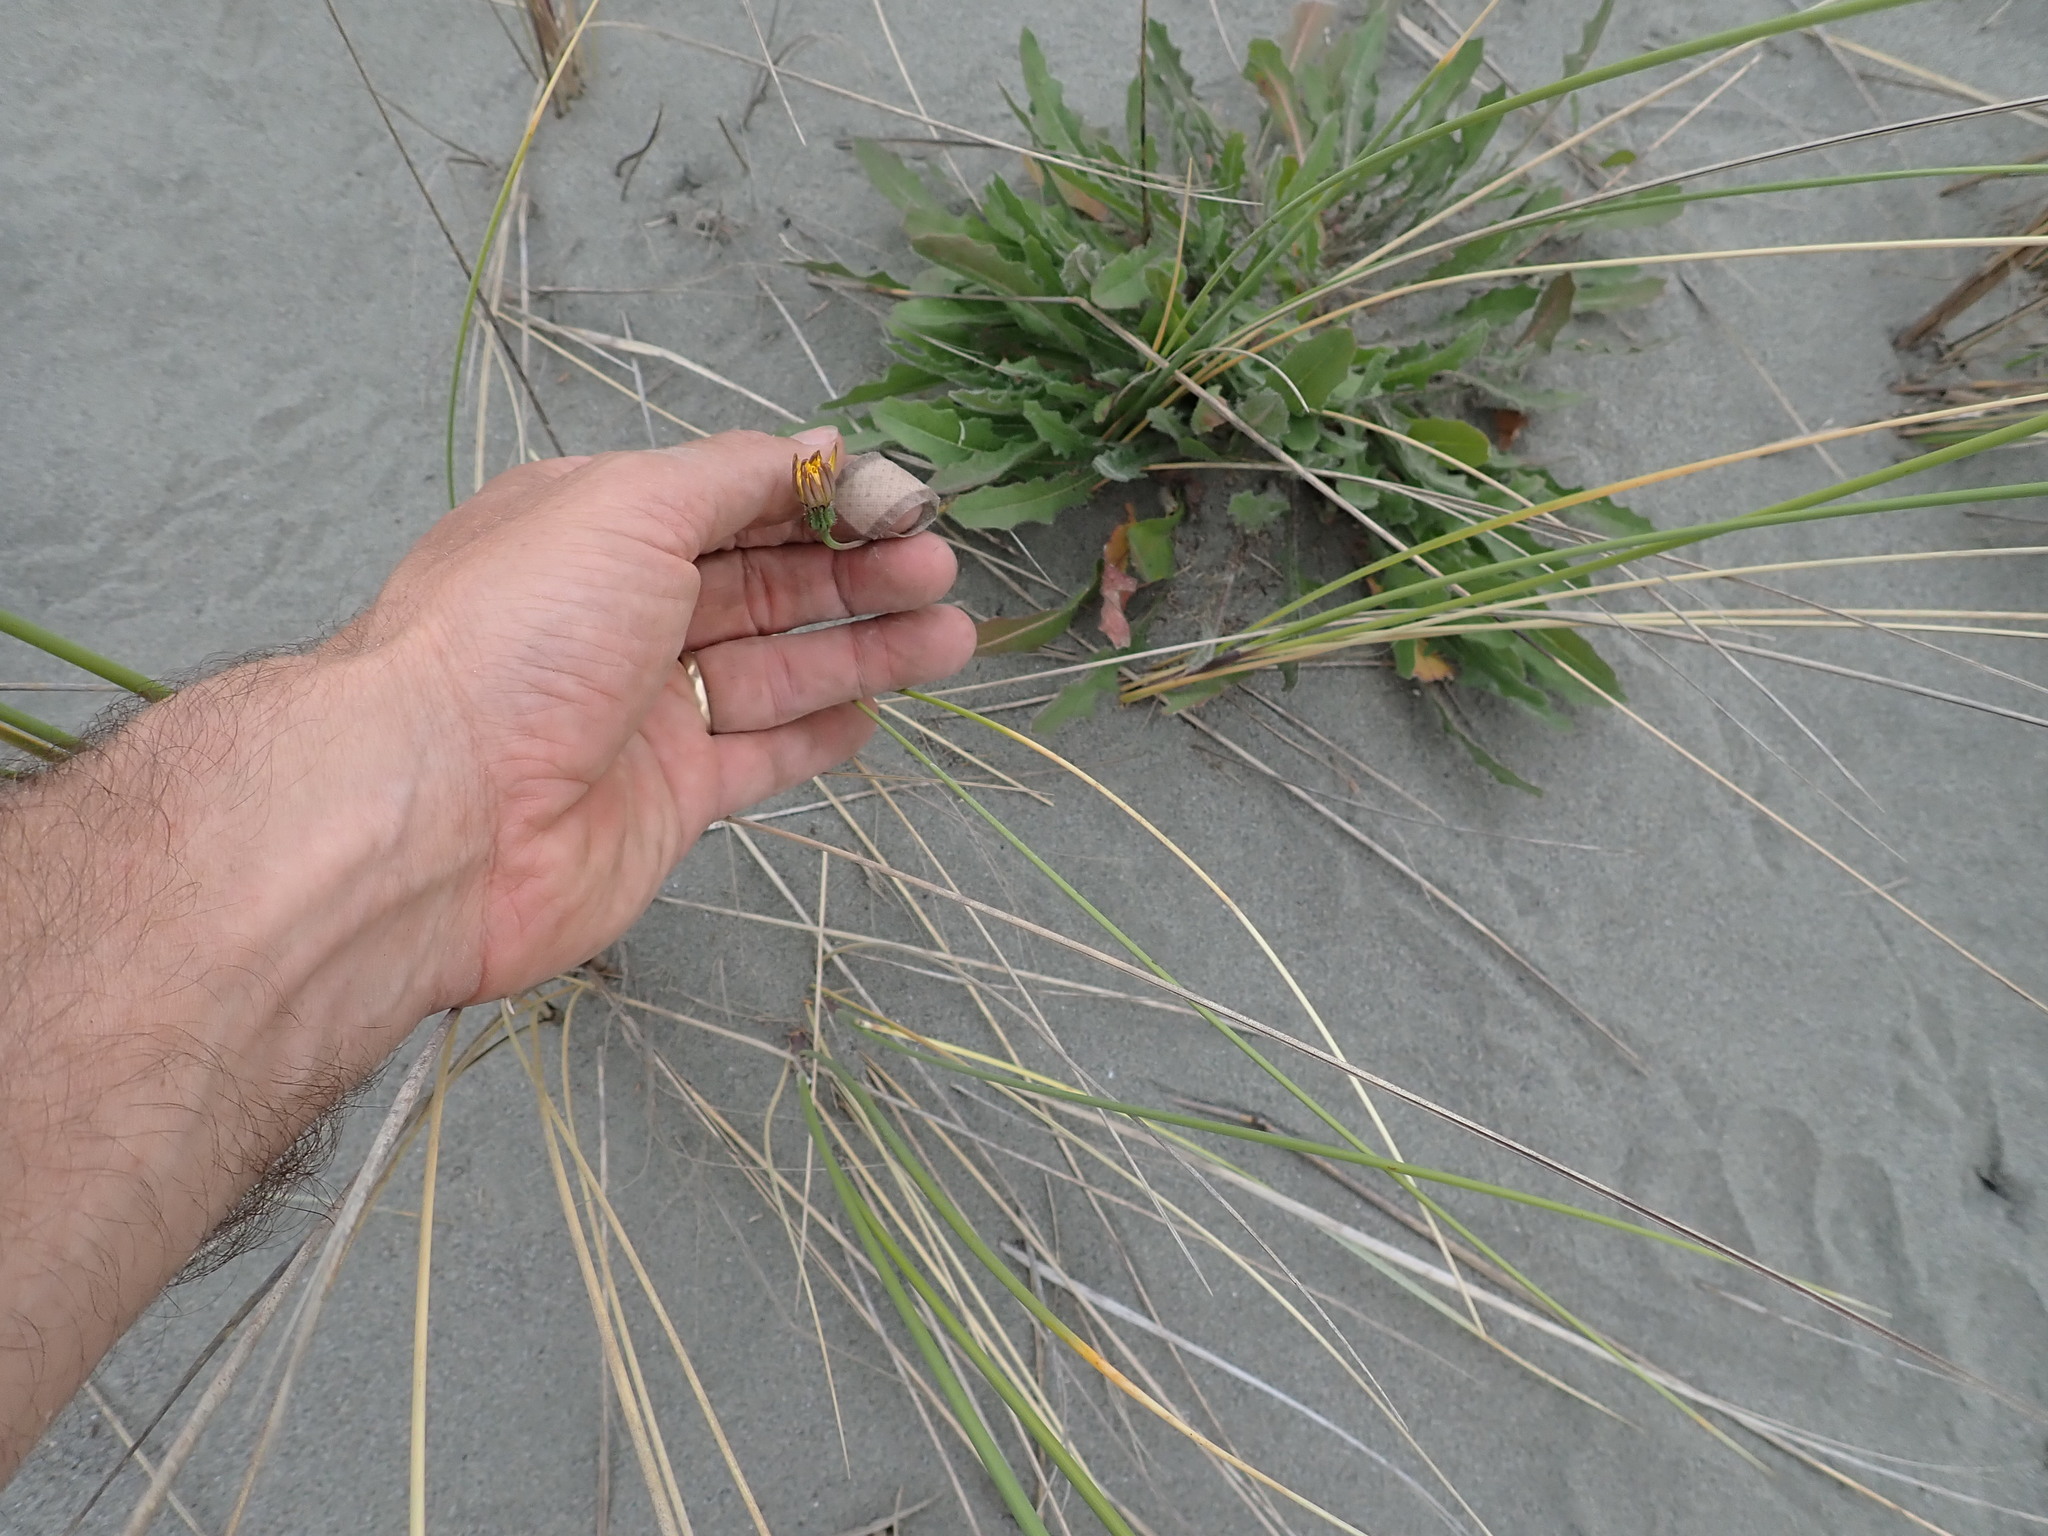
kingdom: Plantae
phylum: Tracheophyta
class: Magnoliopsida
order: Asterales
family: Asteraceae
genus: Hypochaeris
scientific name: Hypochaeris radicata
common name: Flatweed
